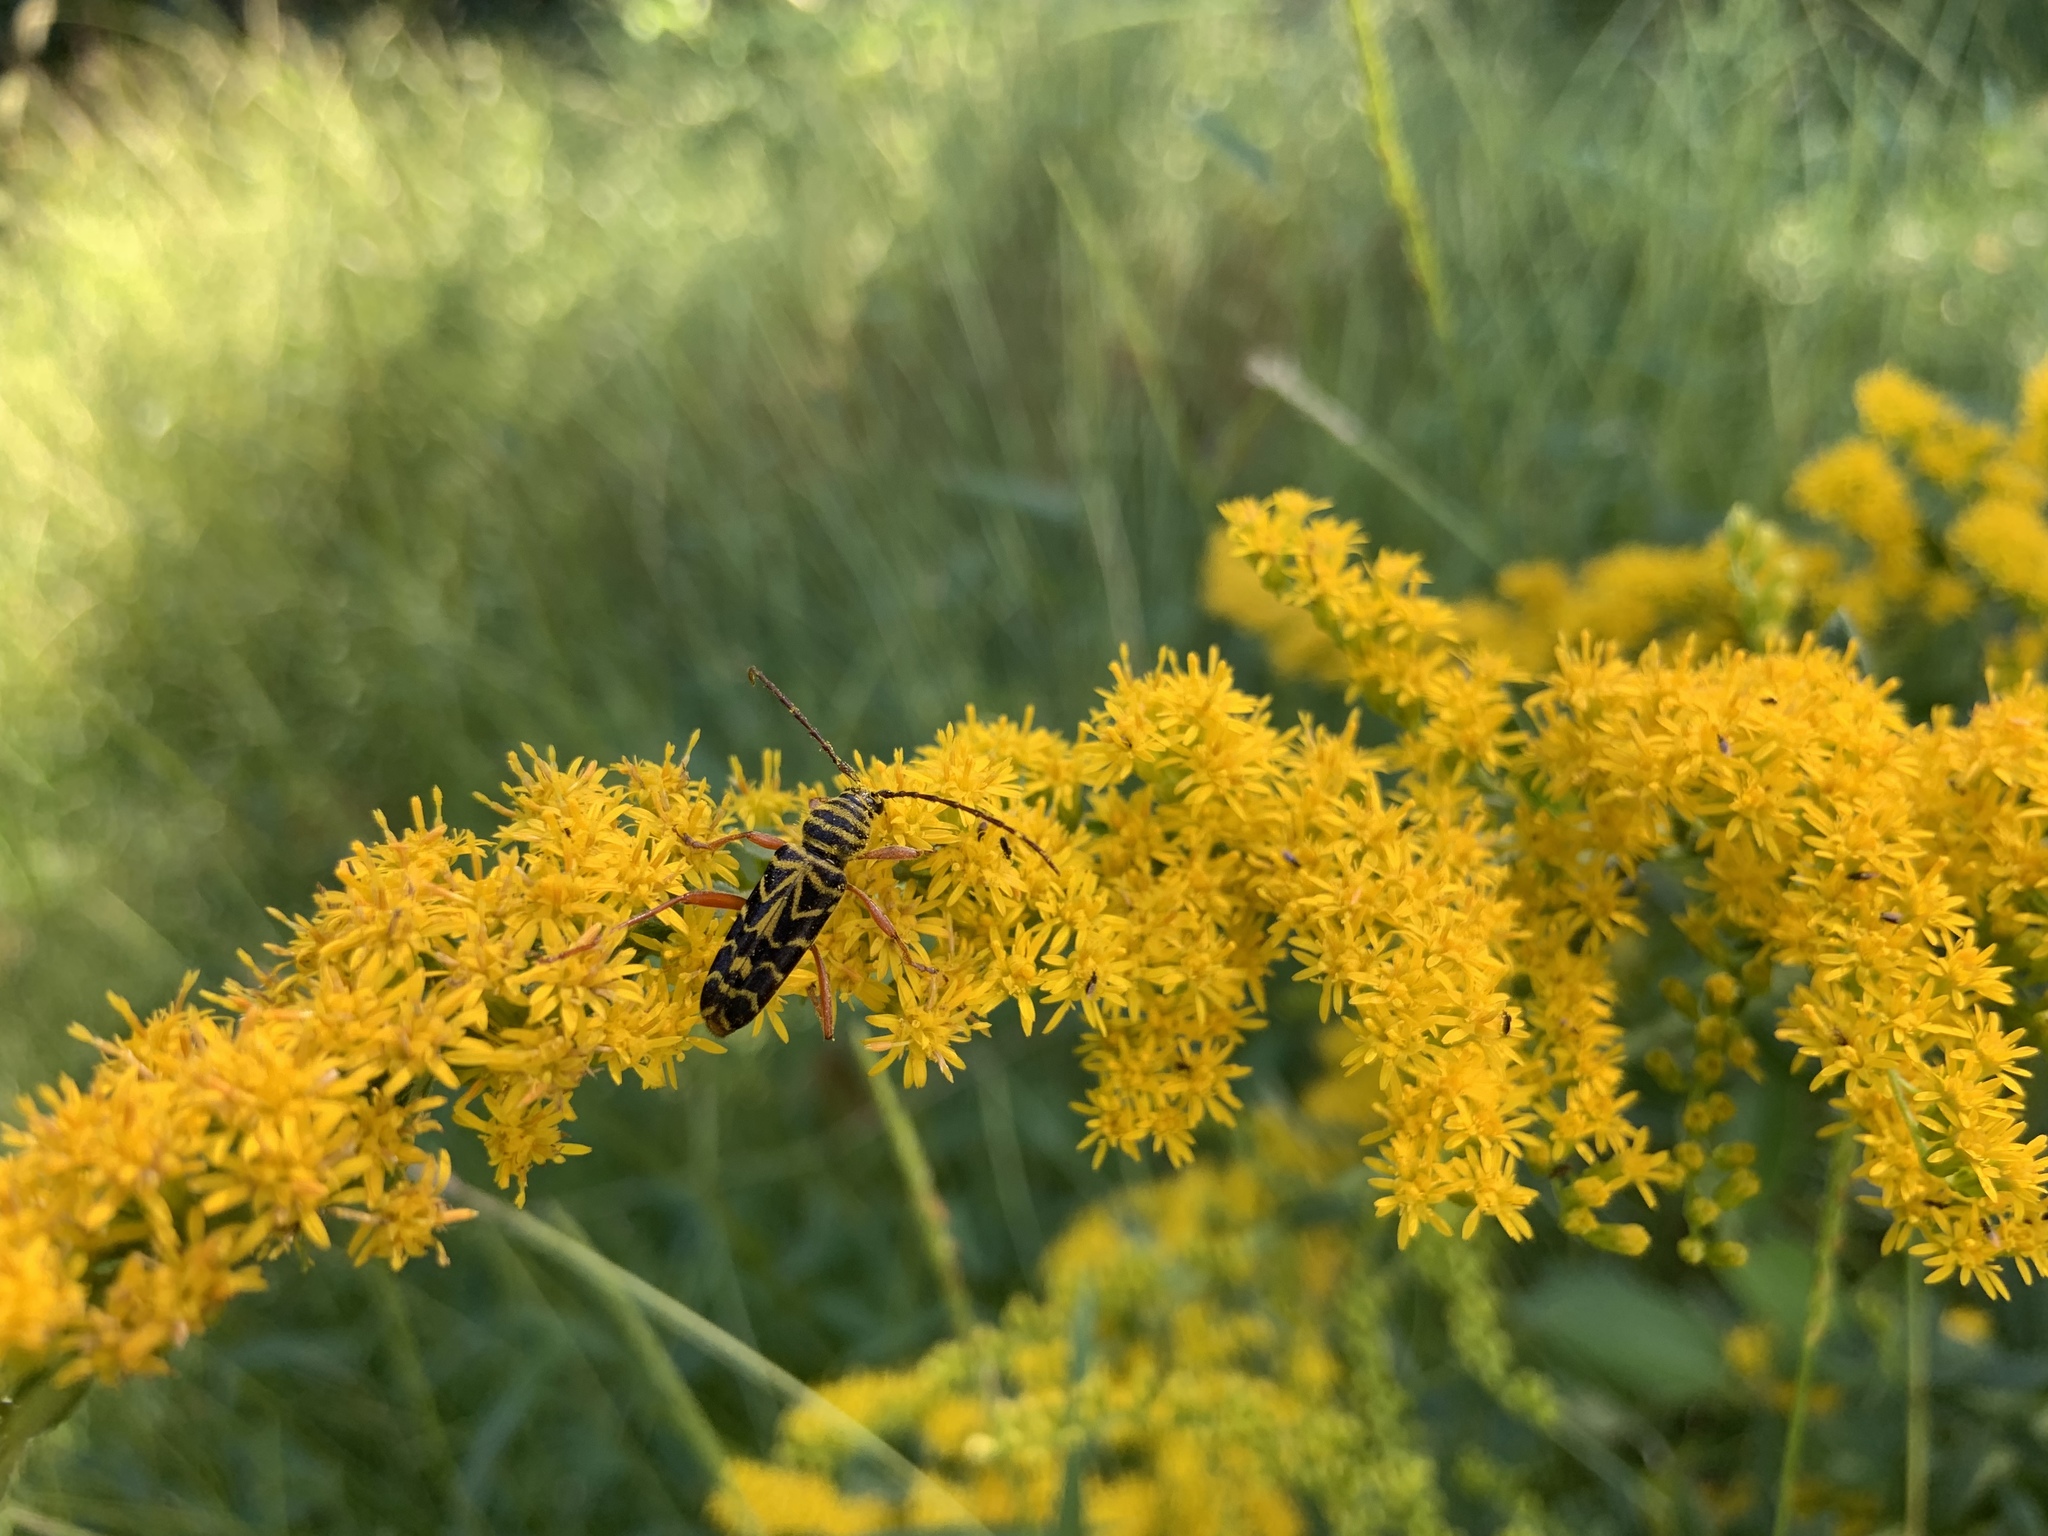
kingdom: Animalia
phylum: Arthropoda
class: Insecta
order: Coleoptera
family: Cerambycidae
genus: Megacyllene
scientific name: Megacyllene robiniae
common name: Locust borer
